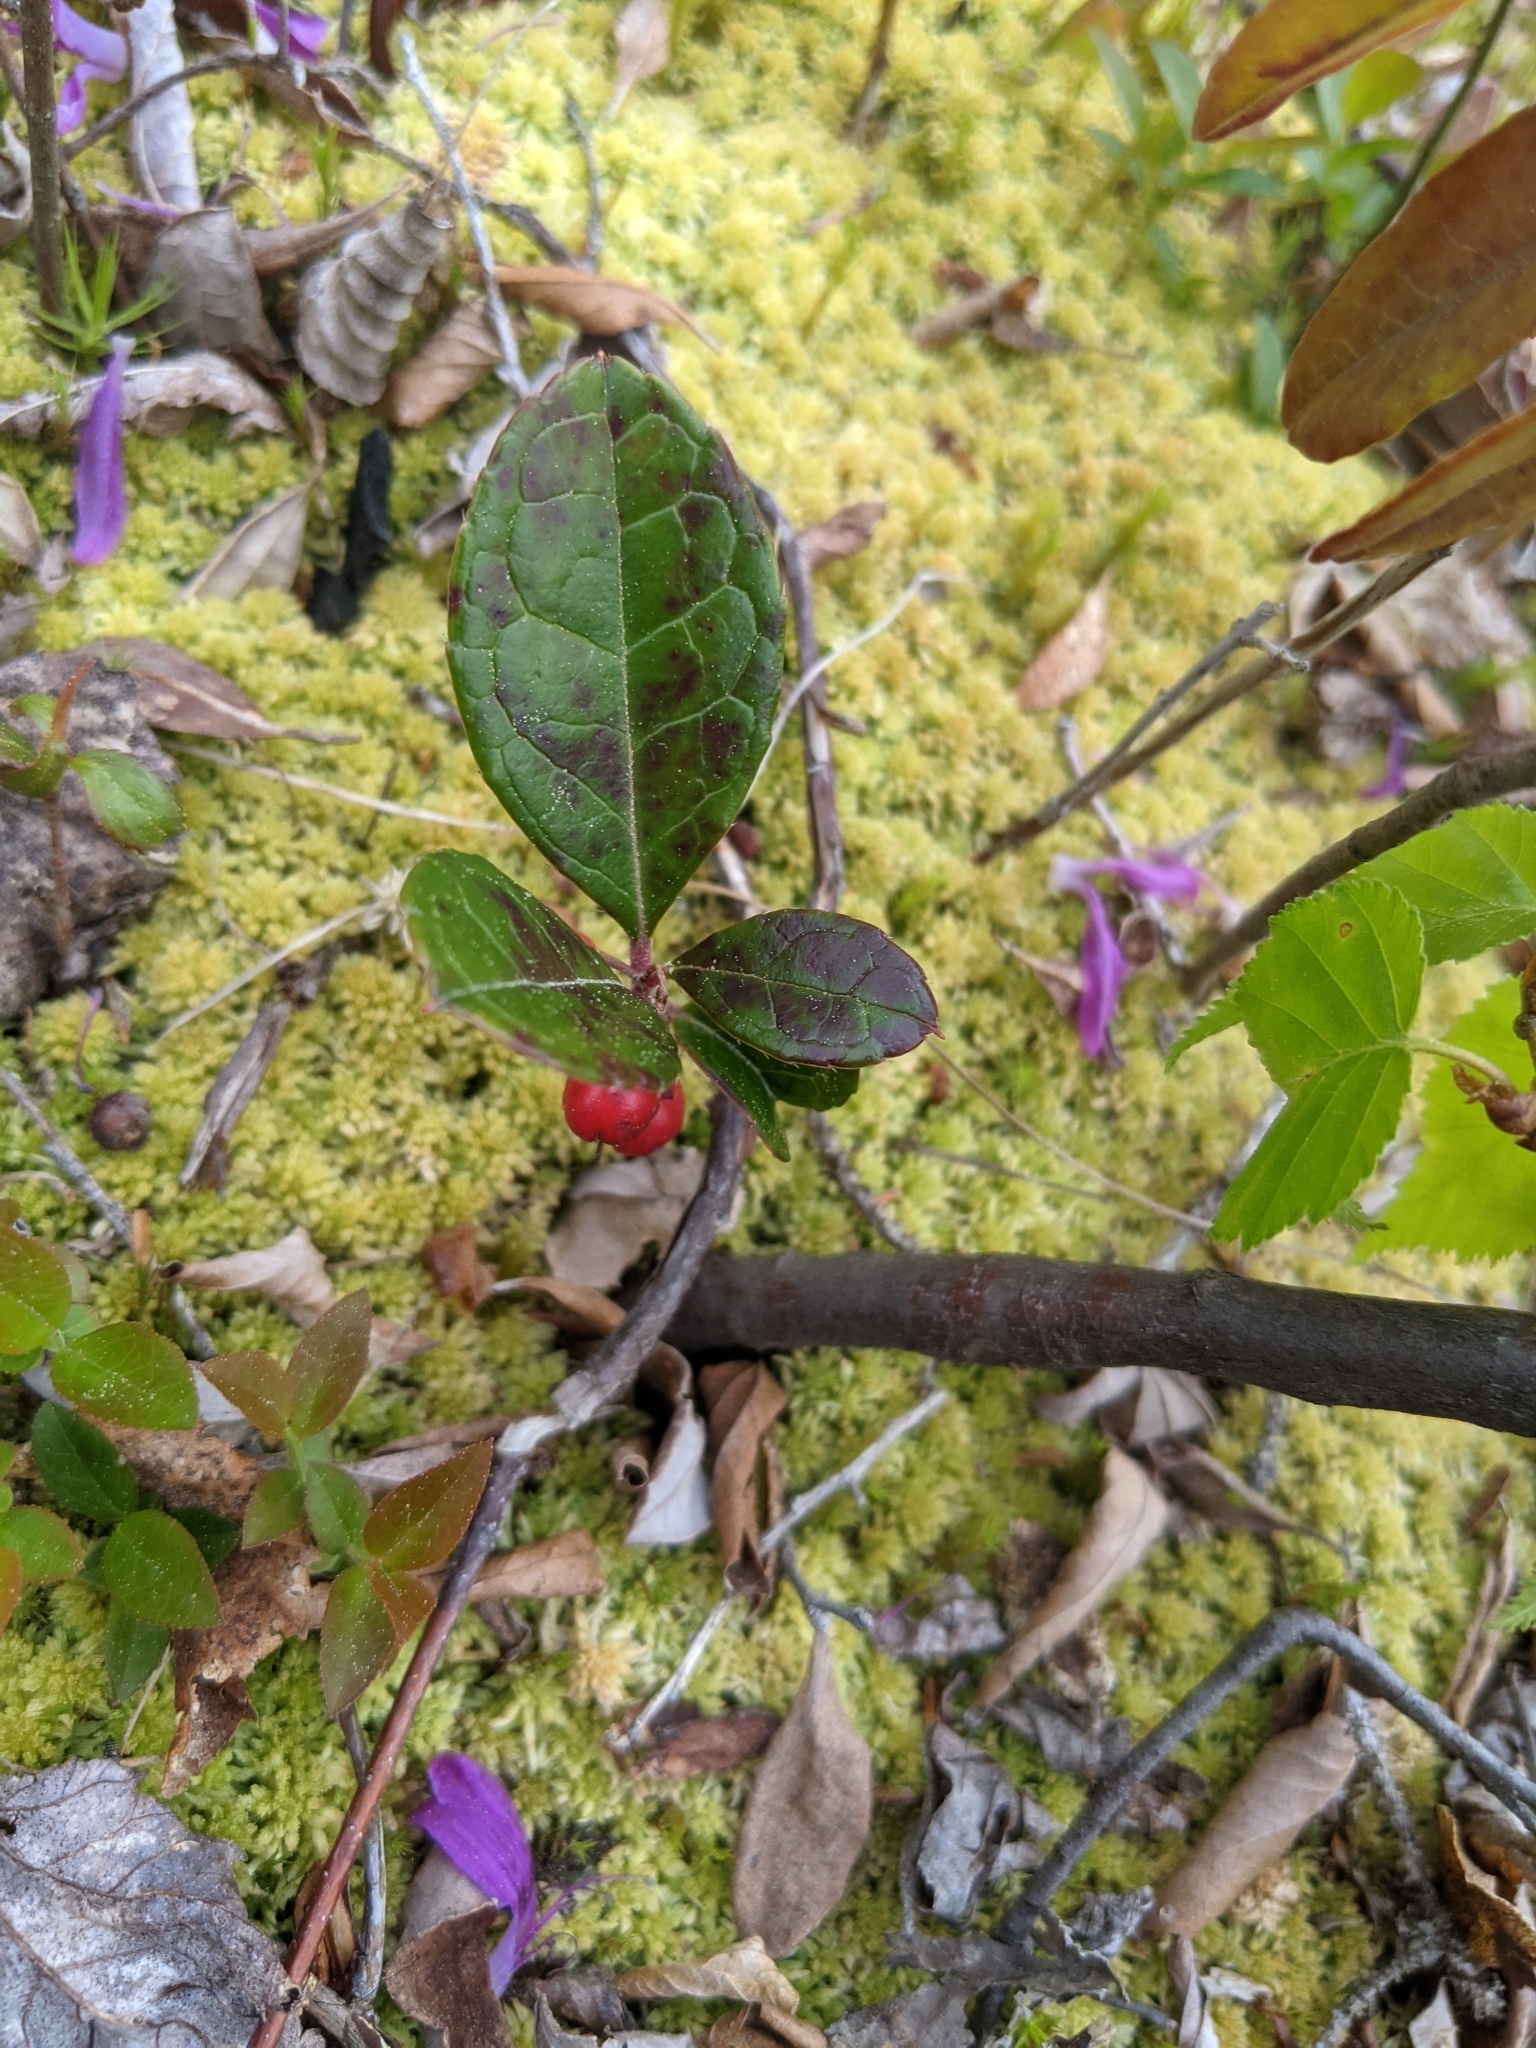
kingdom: Plantae
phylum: Tracheophyta
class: Magnoliopsida
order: Ericales
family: Ericaceae
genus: Gaultheria
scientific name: Gaultheria procumbens
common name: Checkerberry
